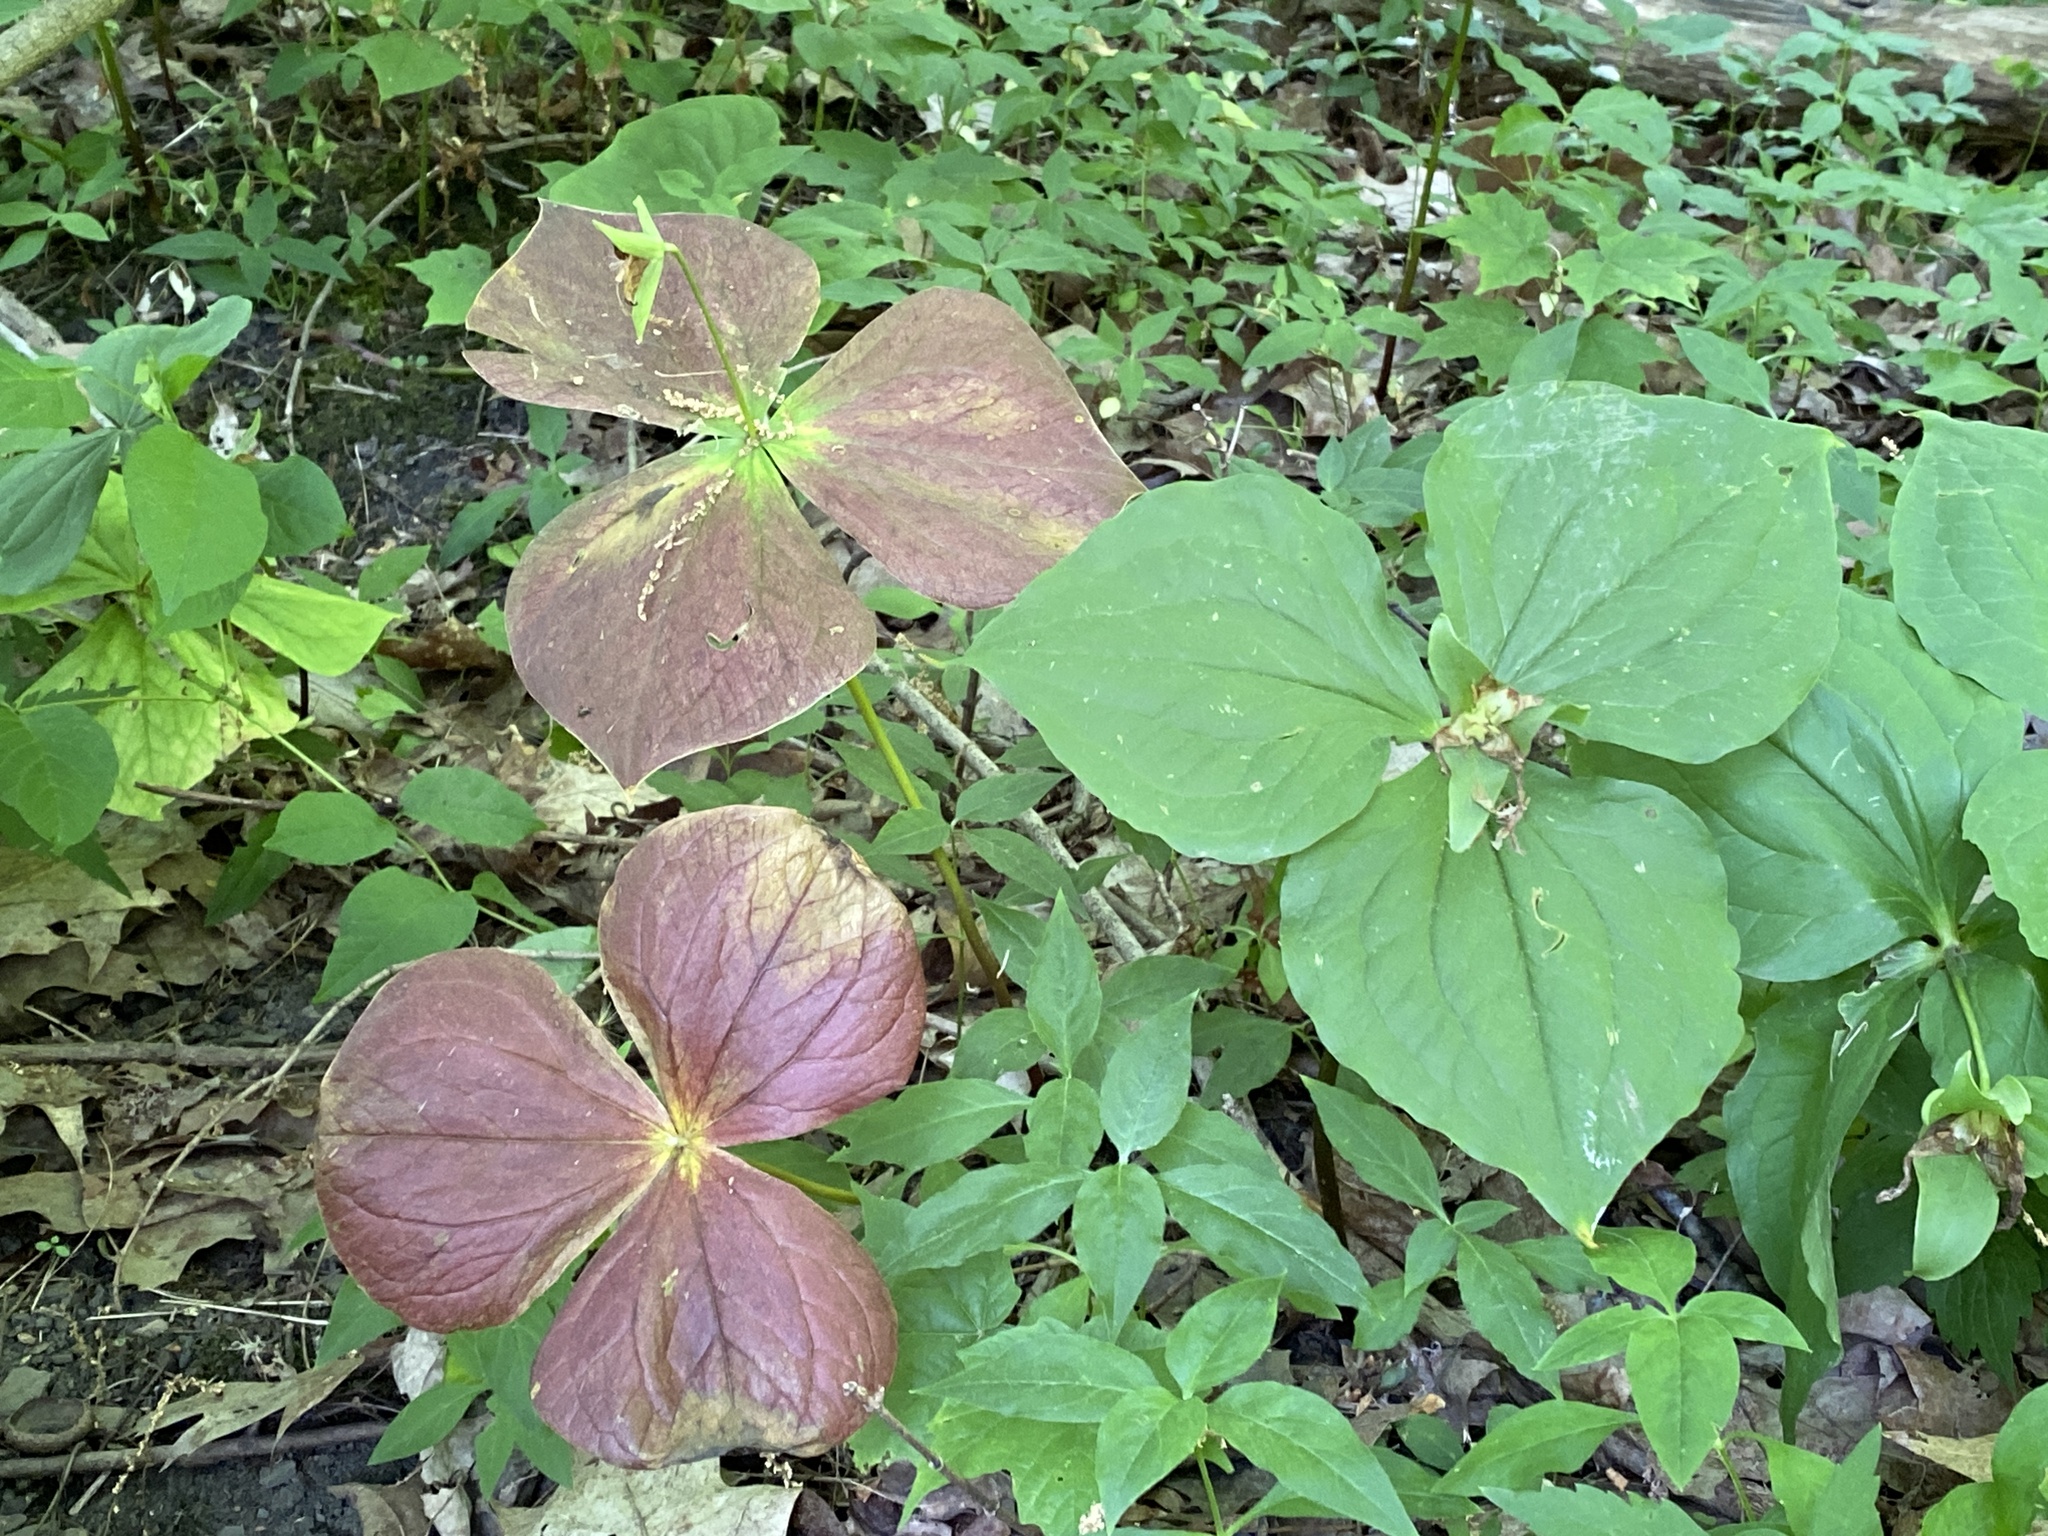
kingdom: Plantae
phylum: Tracheophyta
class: Liliopsida
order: Liliales
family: Melanthiaceae
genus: Trillium
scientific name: Trillium grandiflorum
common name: Great white trillium
